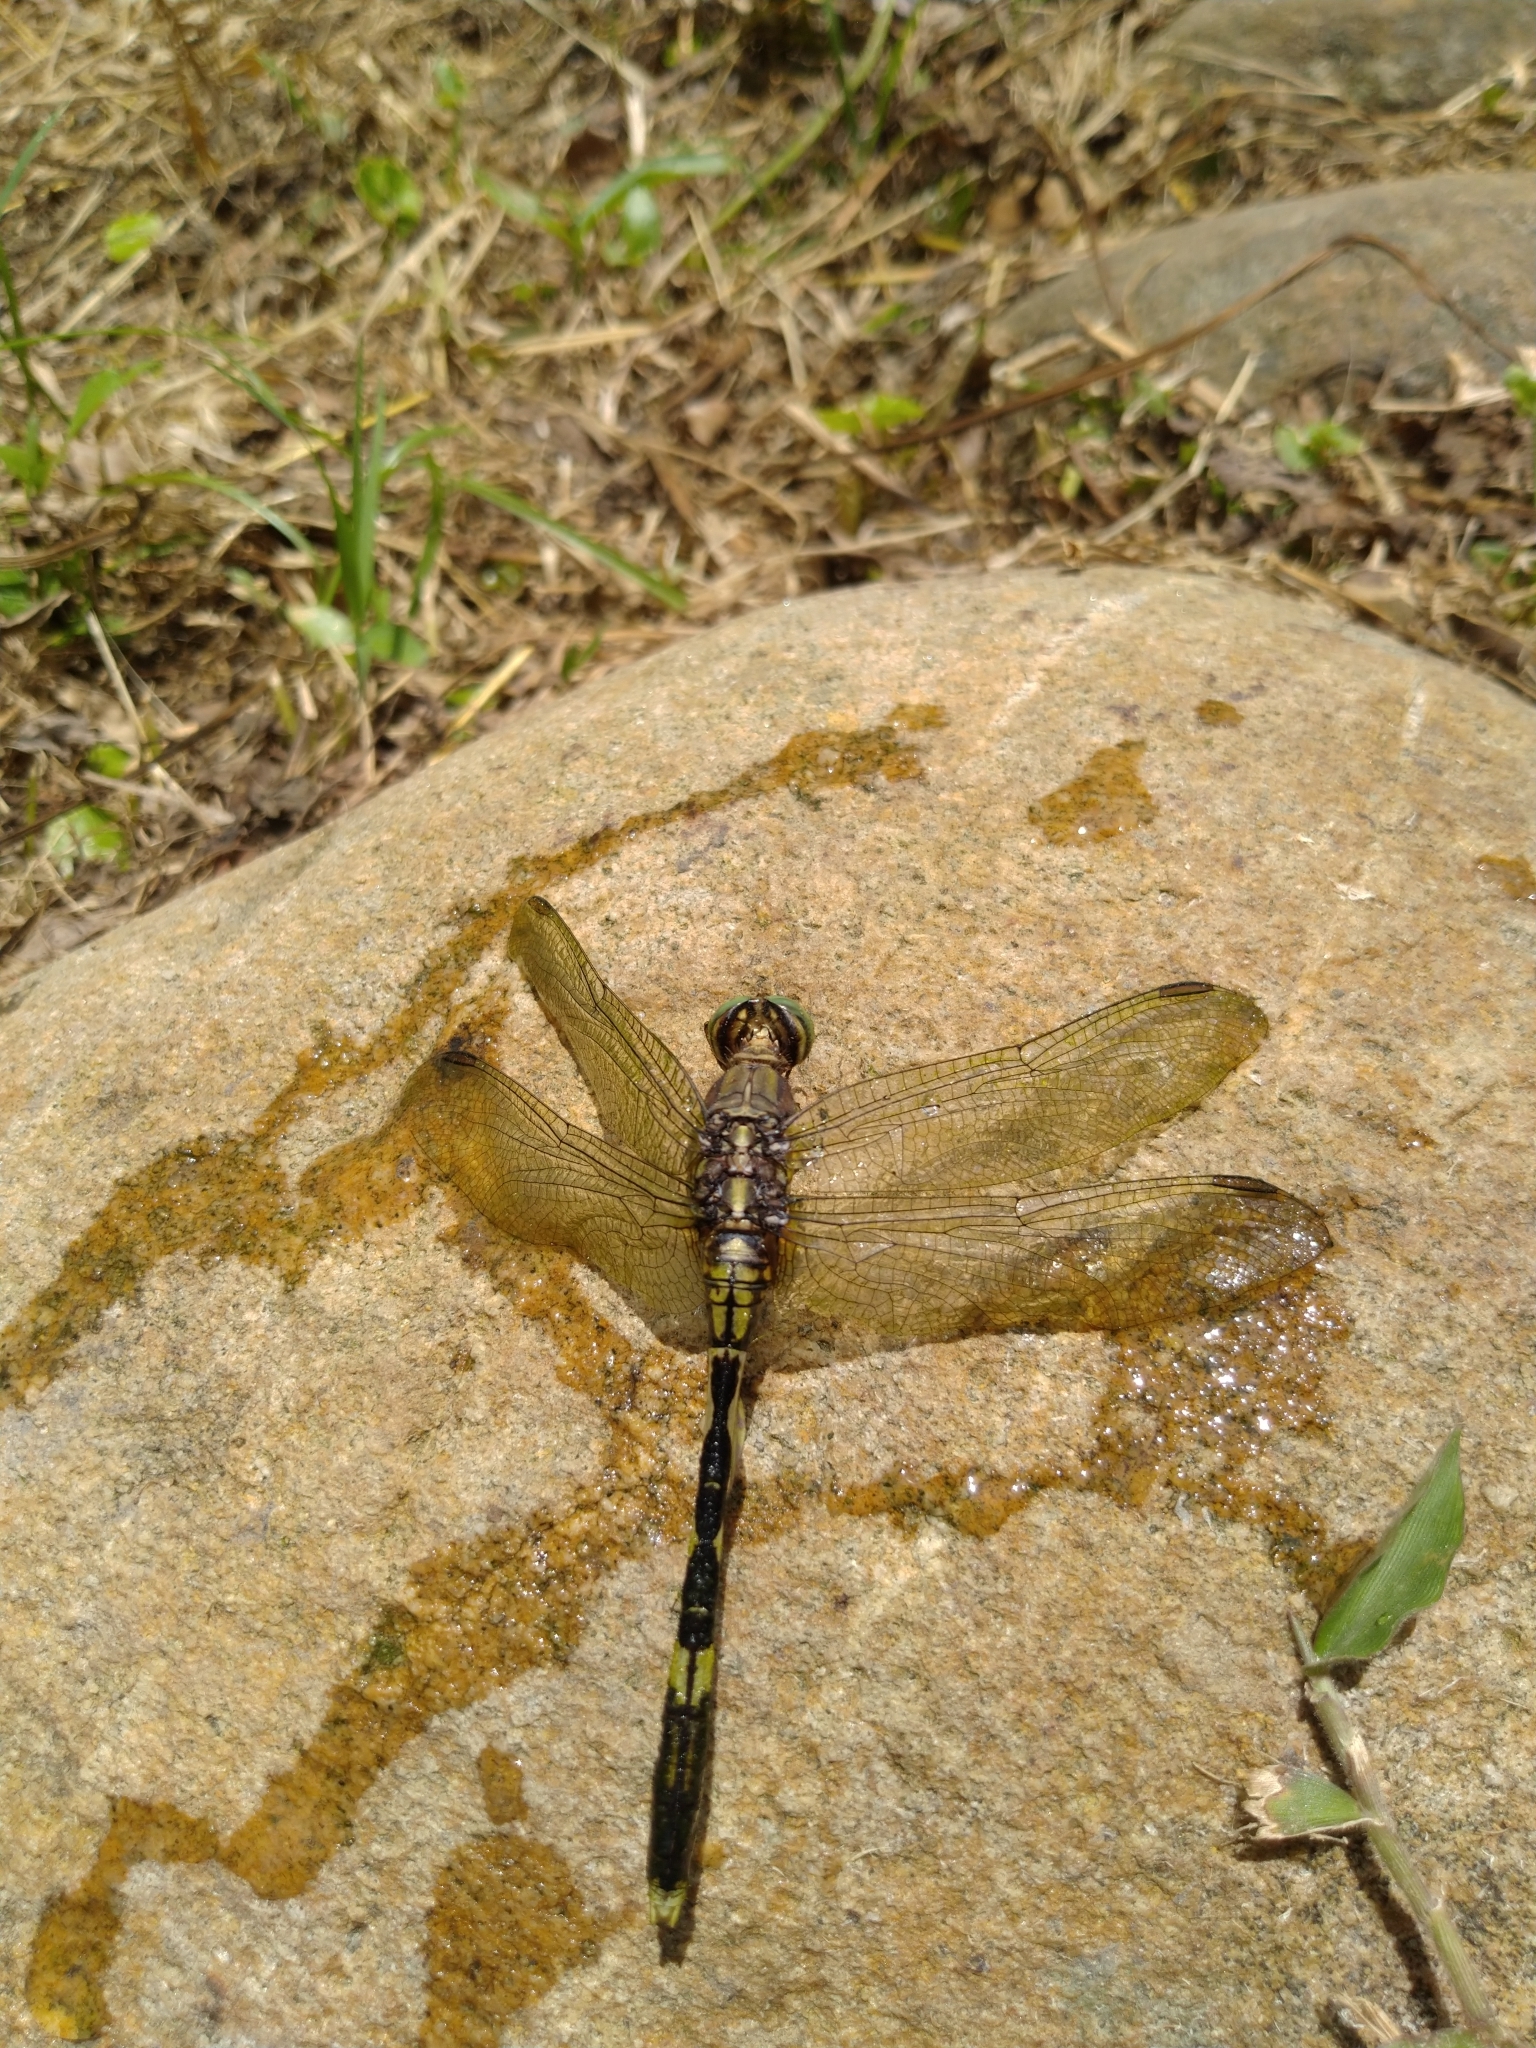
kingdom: Animalia
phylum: Arthropoda
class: Insecta
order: Odonata
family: Libellulidae
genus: Orthetrum
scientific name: Orthetrum sabina
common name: Slender skimmer
